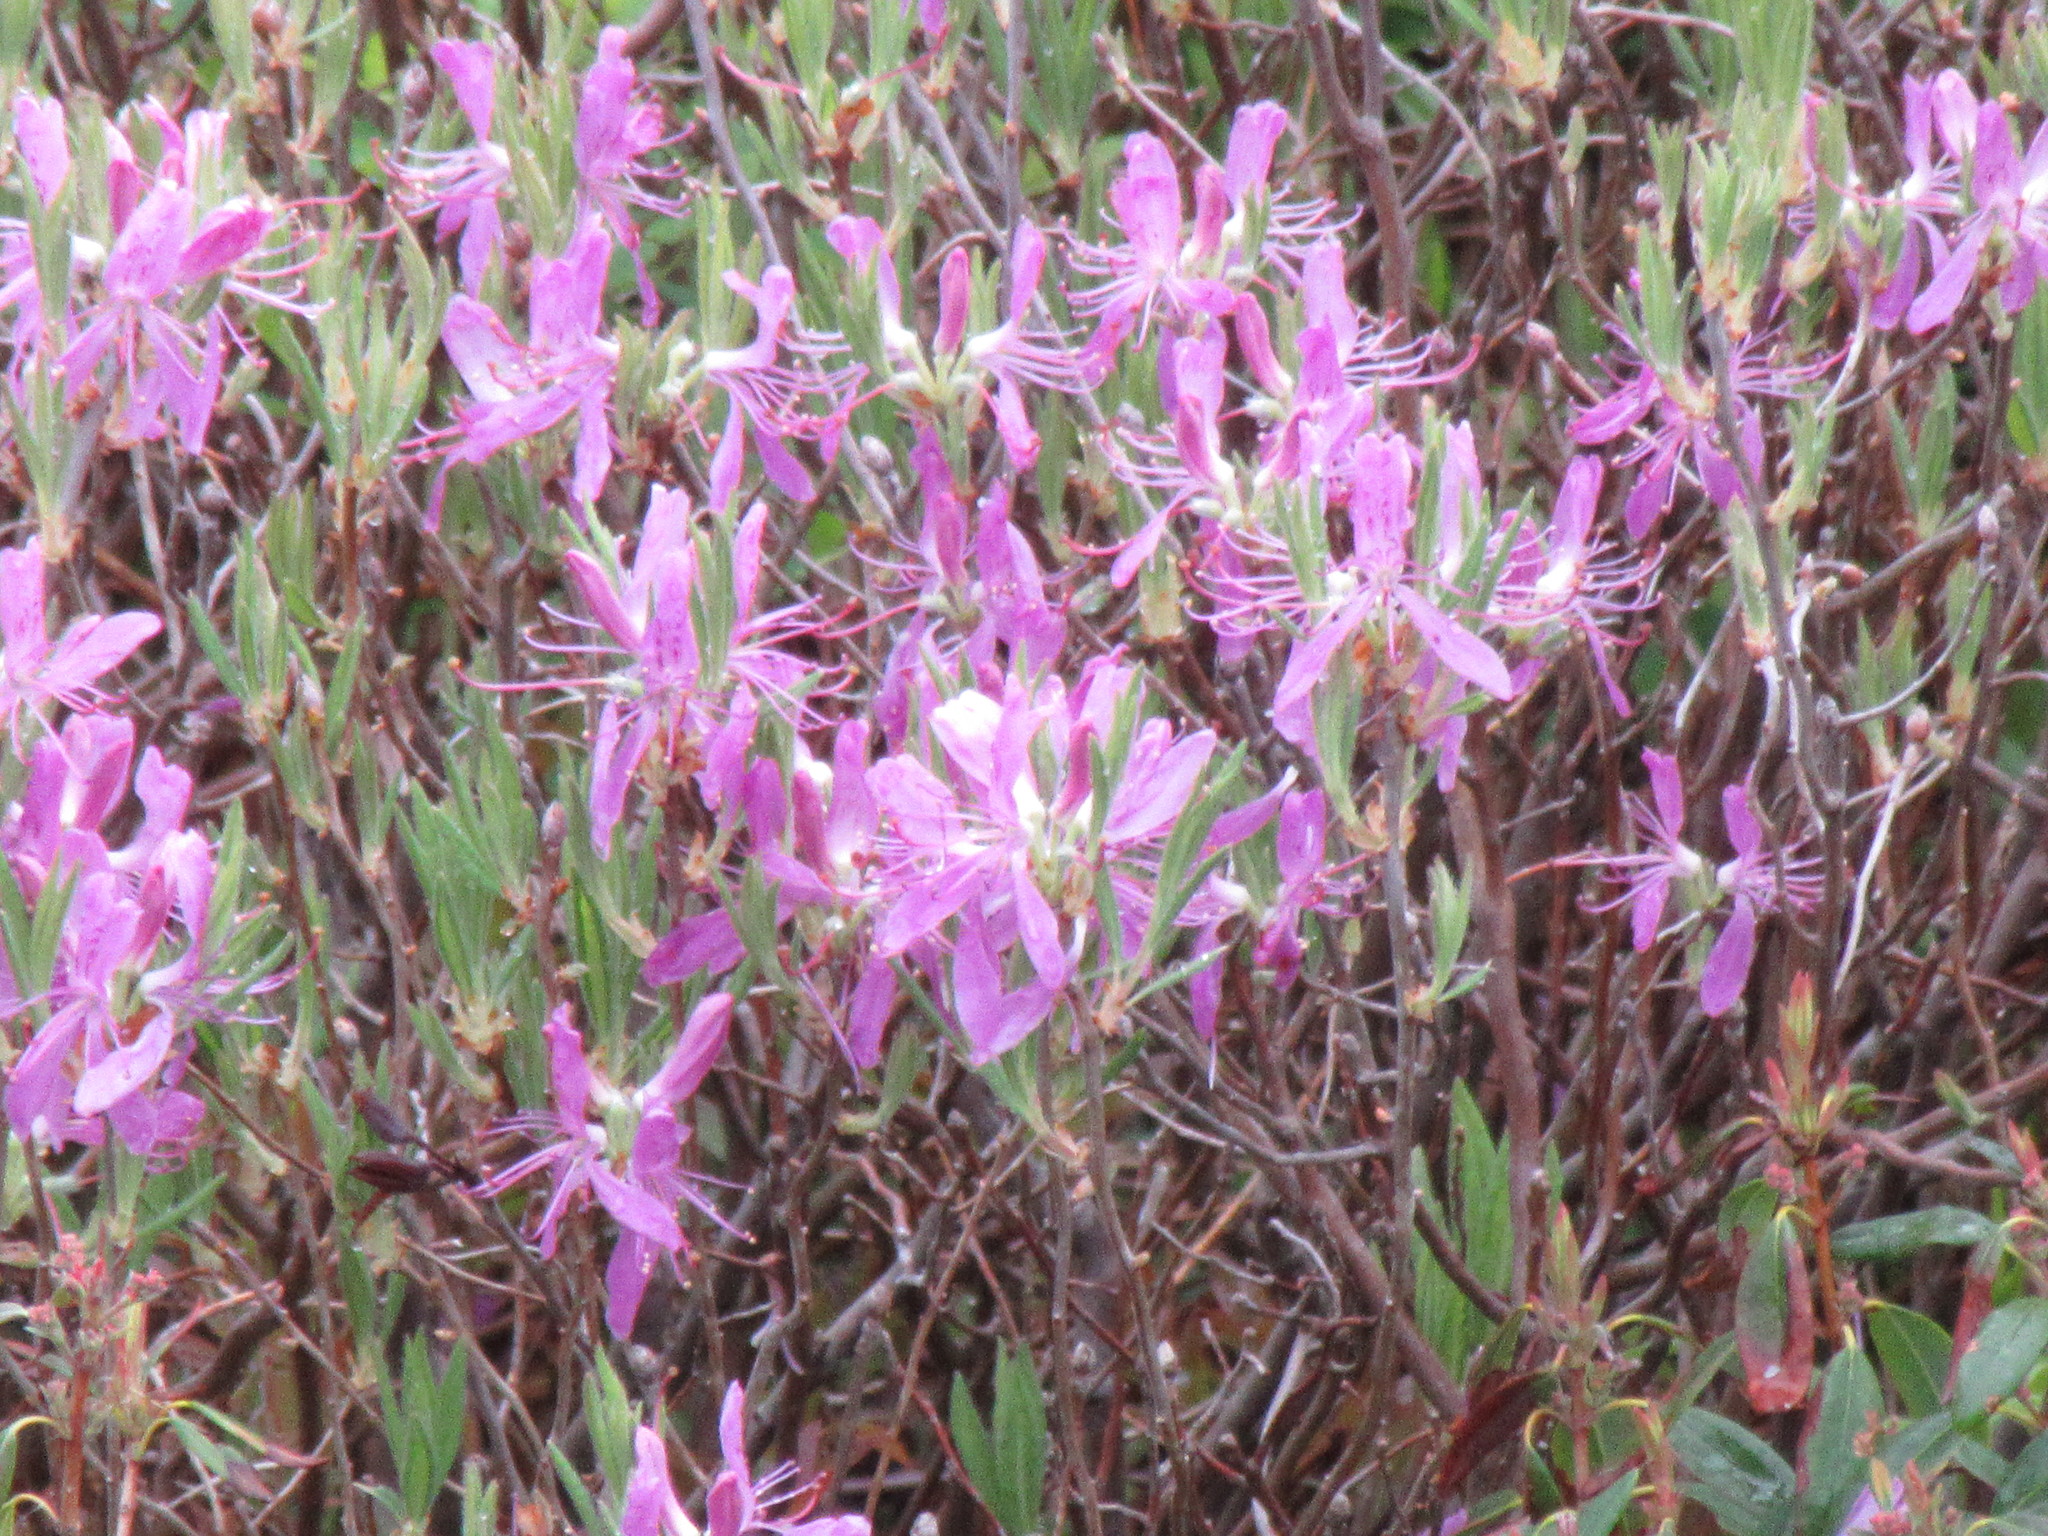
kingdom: Plantae
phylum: Tracheophyta
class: Magnoliopsida
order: Ericales
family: Ericaceae
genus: Rhododendron
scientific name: Rhododendron canadense
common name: Rhodora
